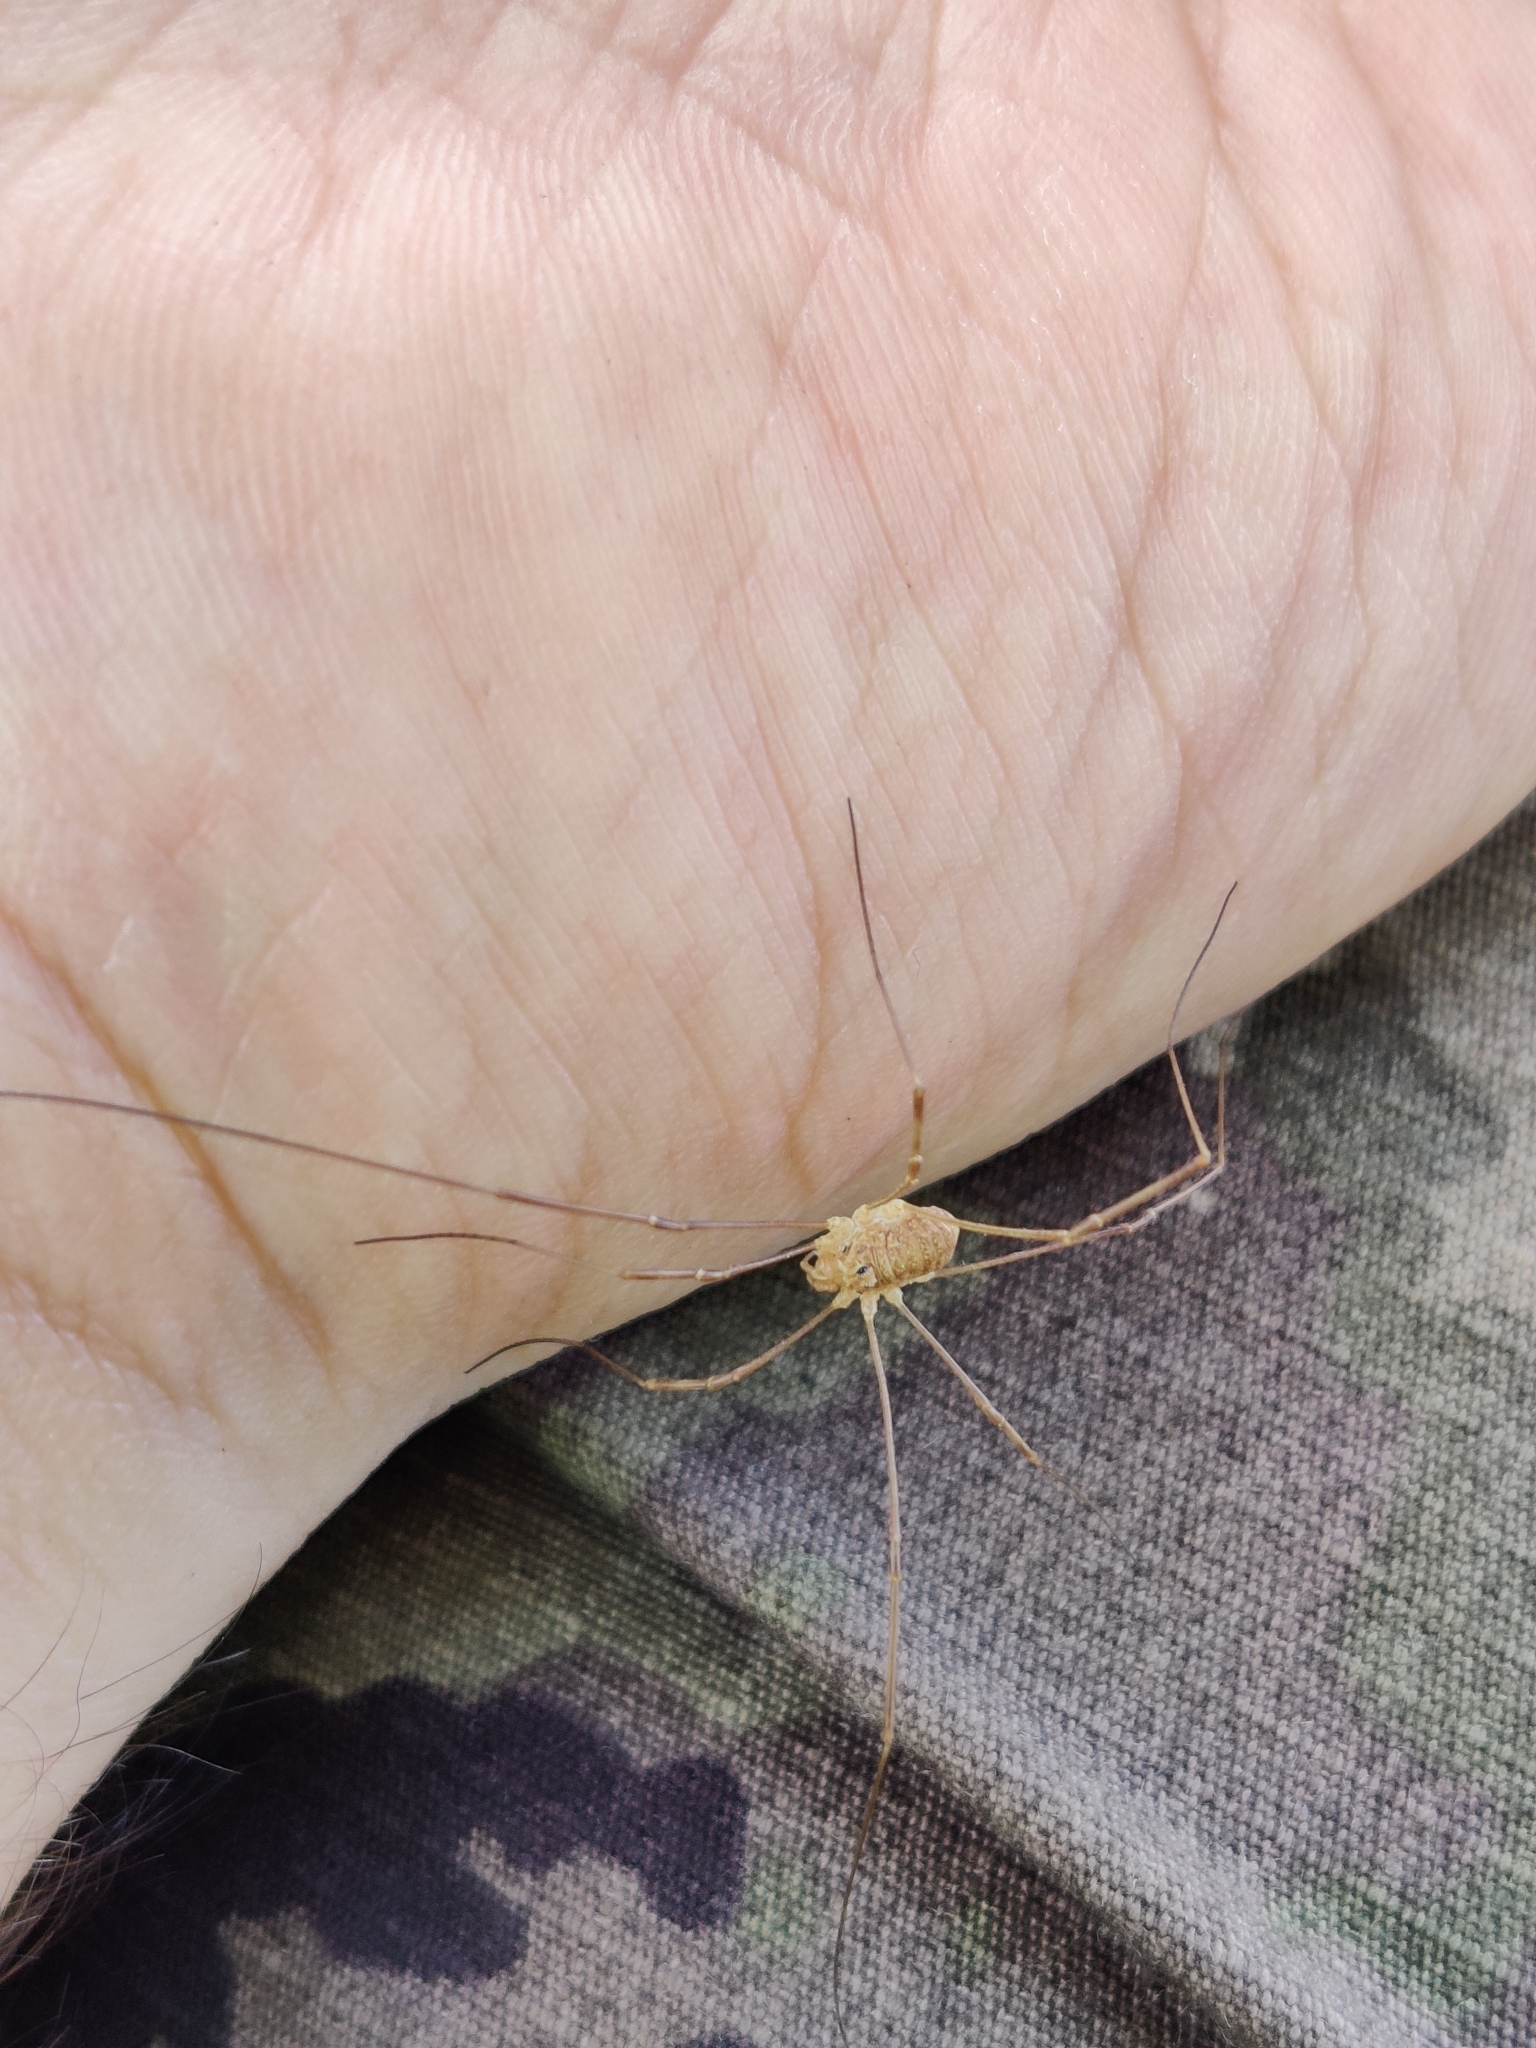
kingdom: Animalia
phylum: Arthropoda
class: Arachnida
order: Opiliones
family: Phalangiidae
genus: Rilaena
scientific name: Rilaena triangularis
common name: Spring harvestman
